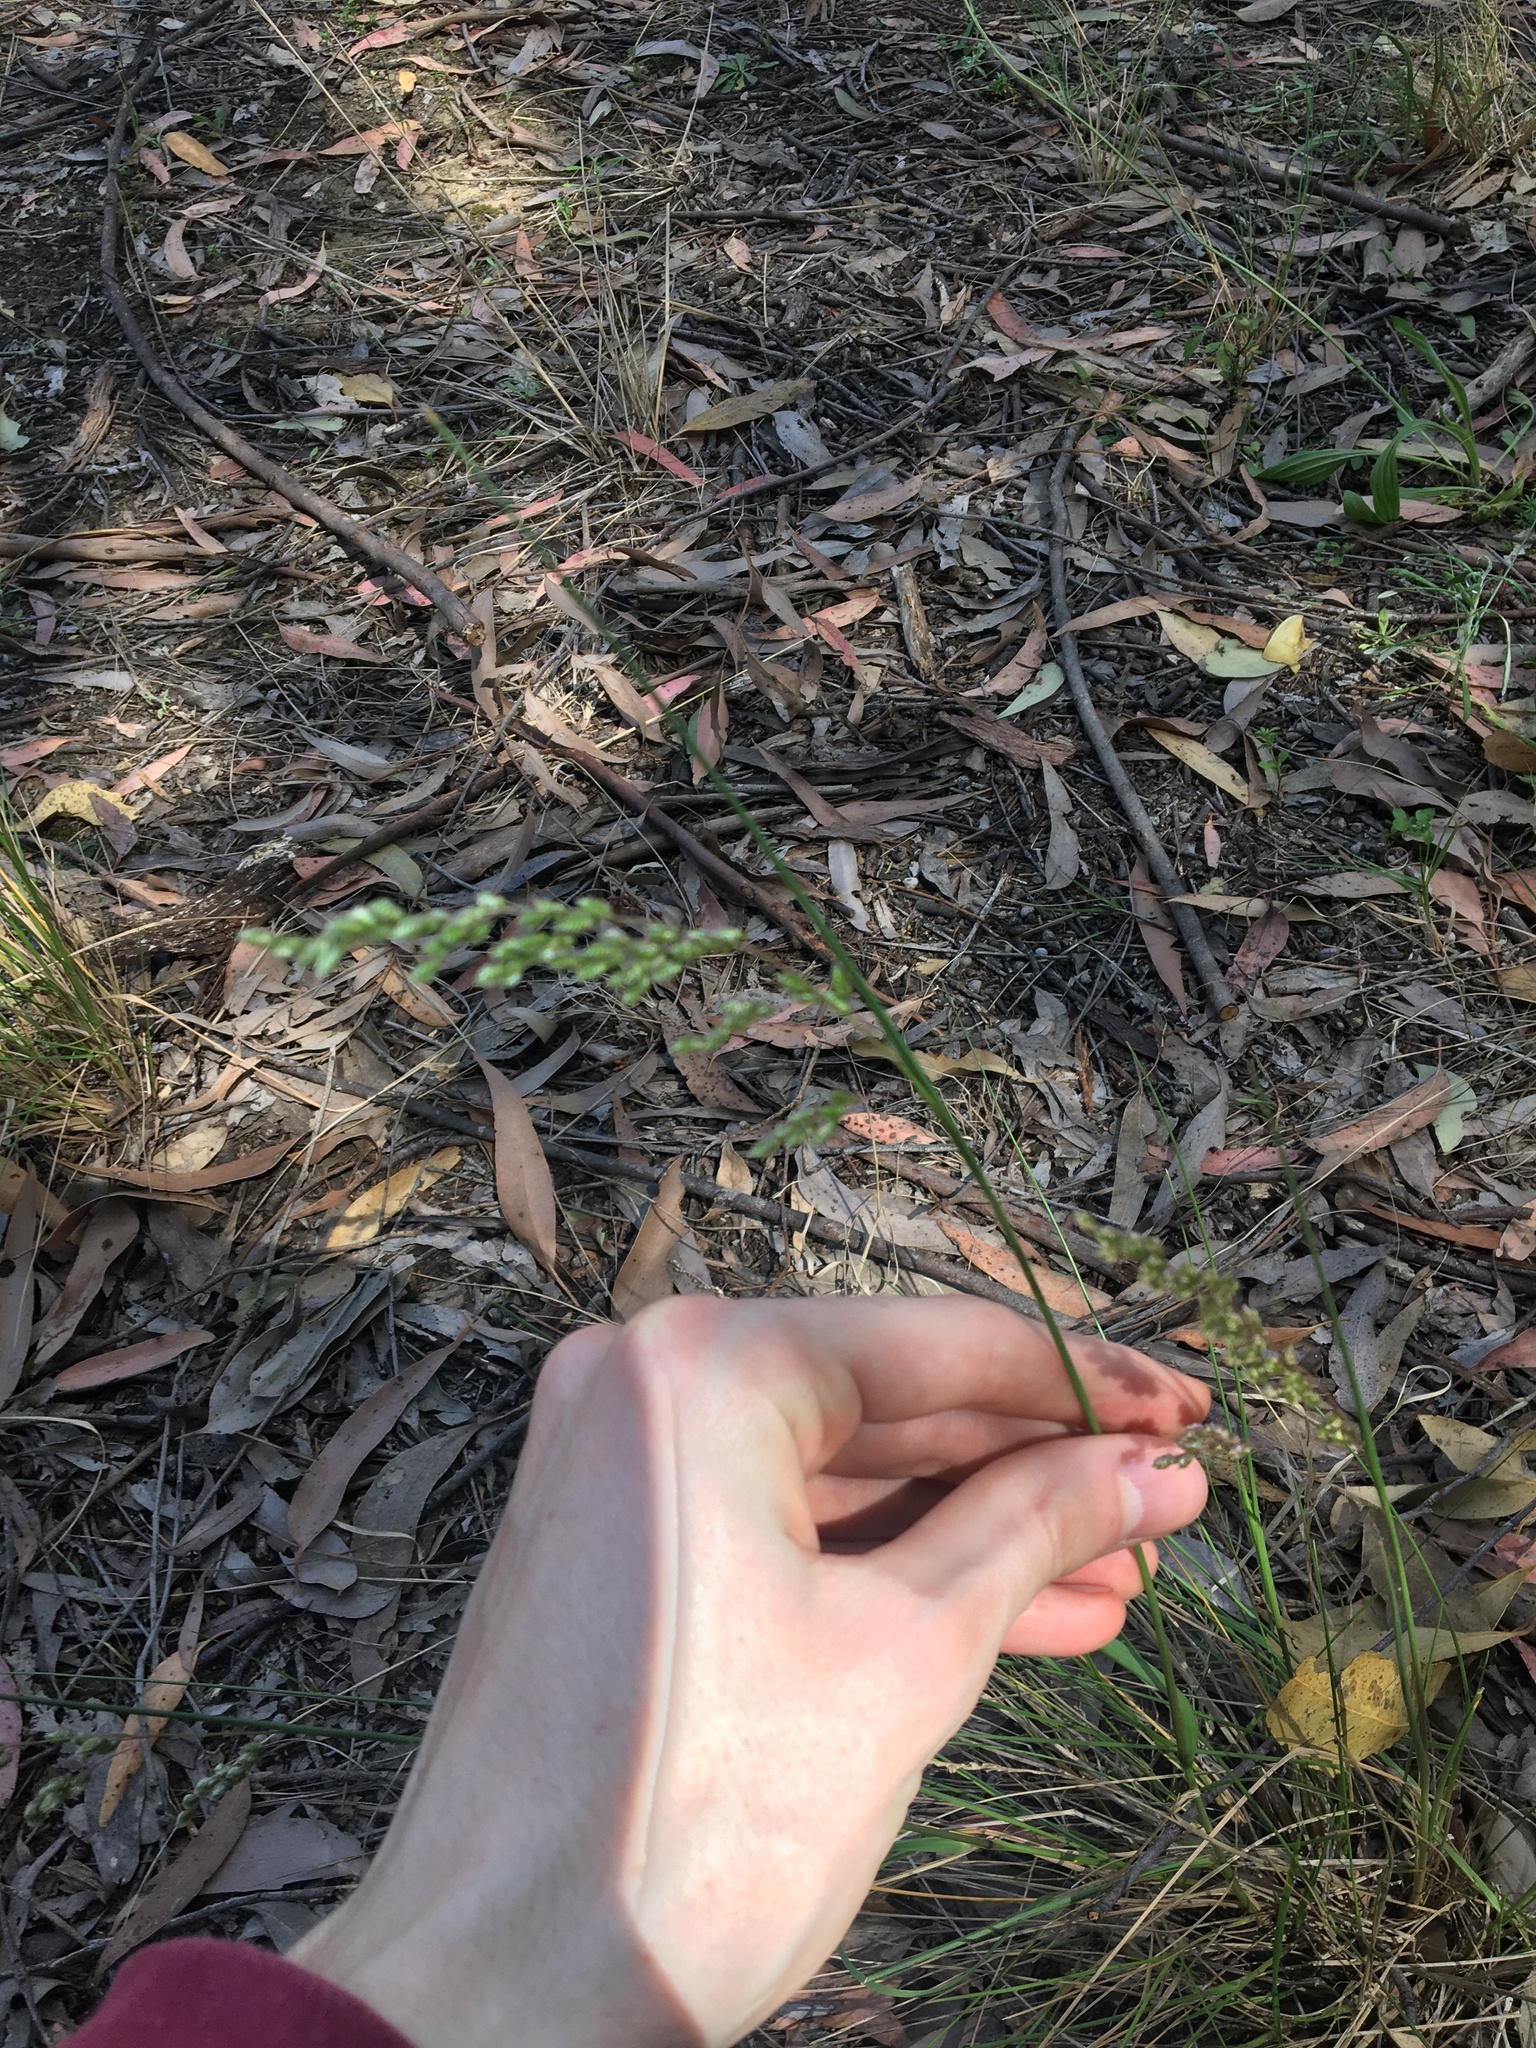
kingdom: Plantae
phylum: Tracheophyta
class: Liliopsida
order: Poales
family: Poaceae
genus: Chascolytrum
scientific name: Chascolytrum subaristatum
